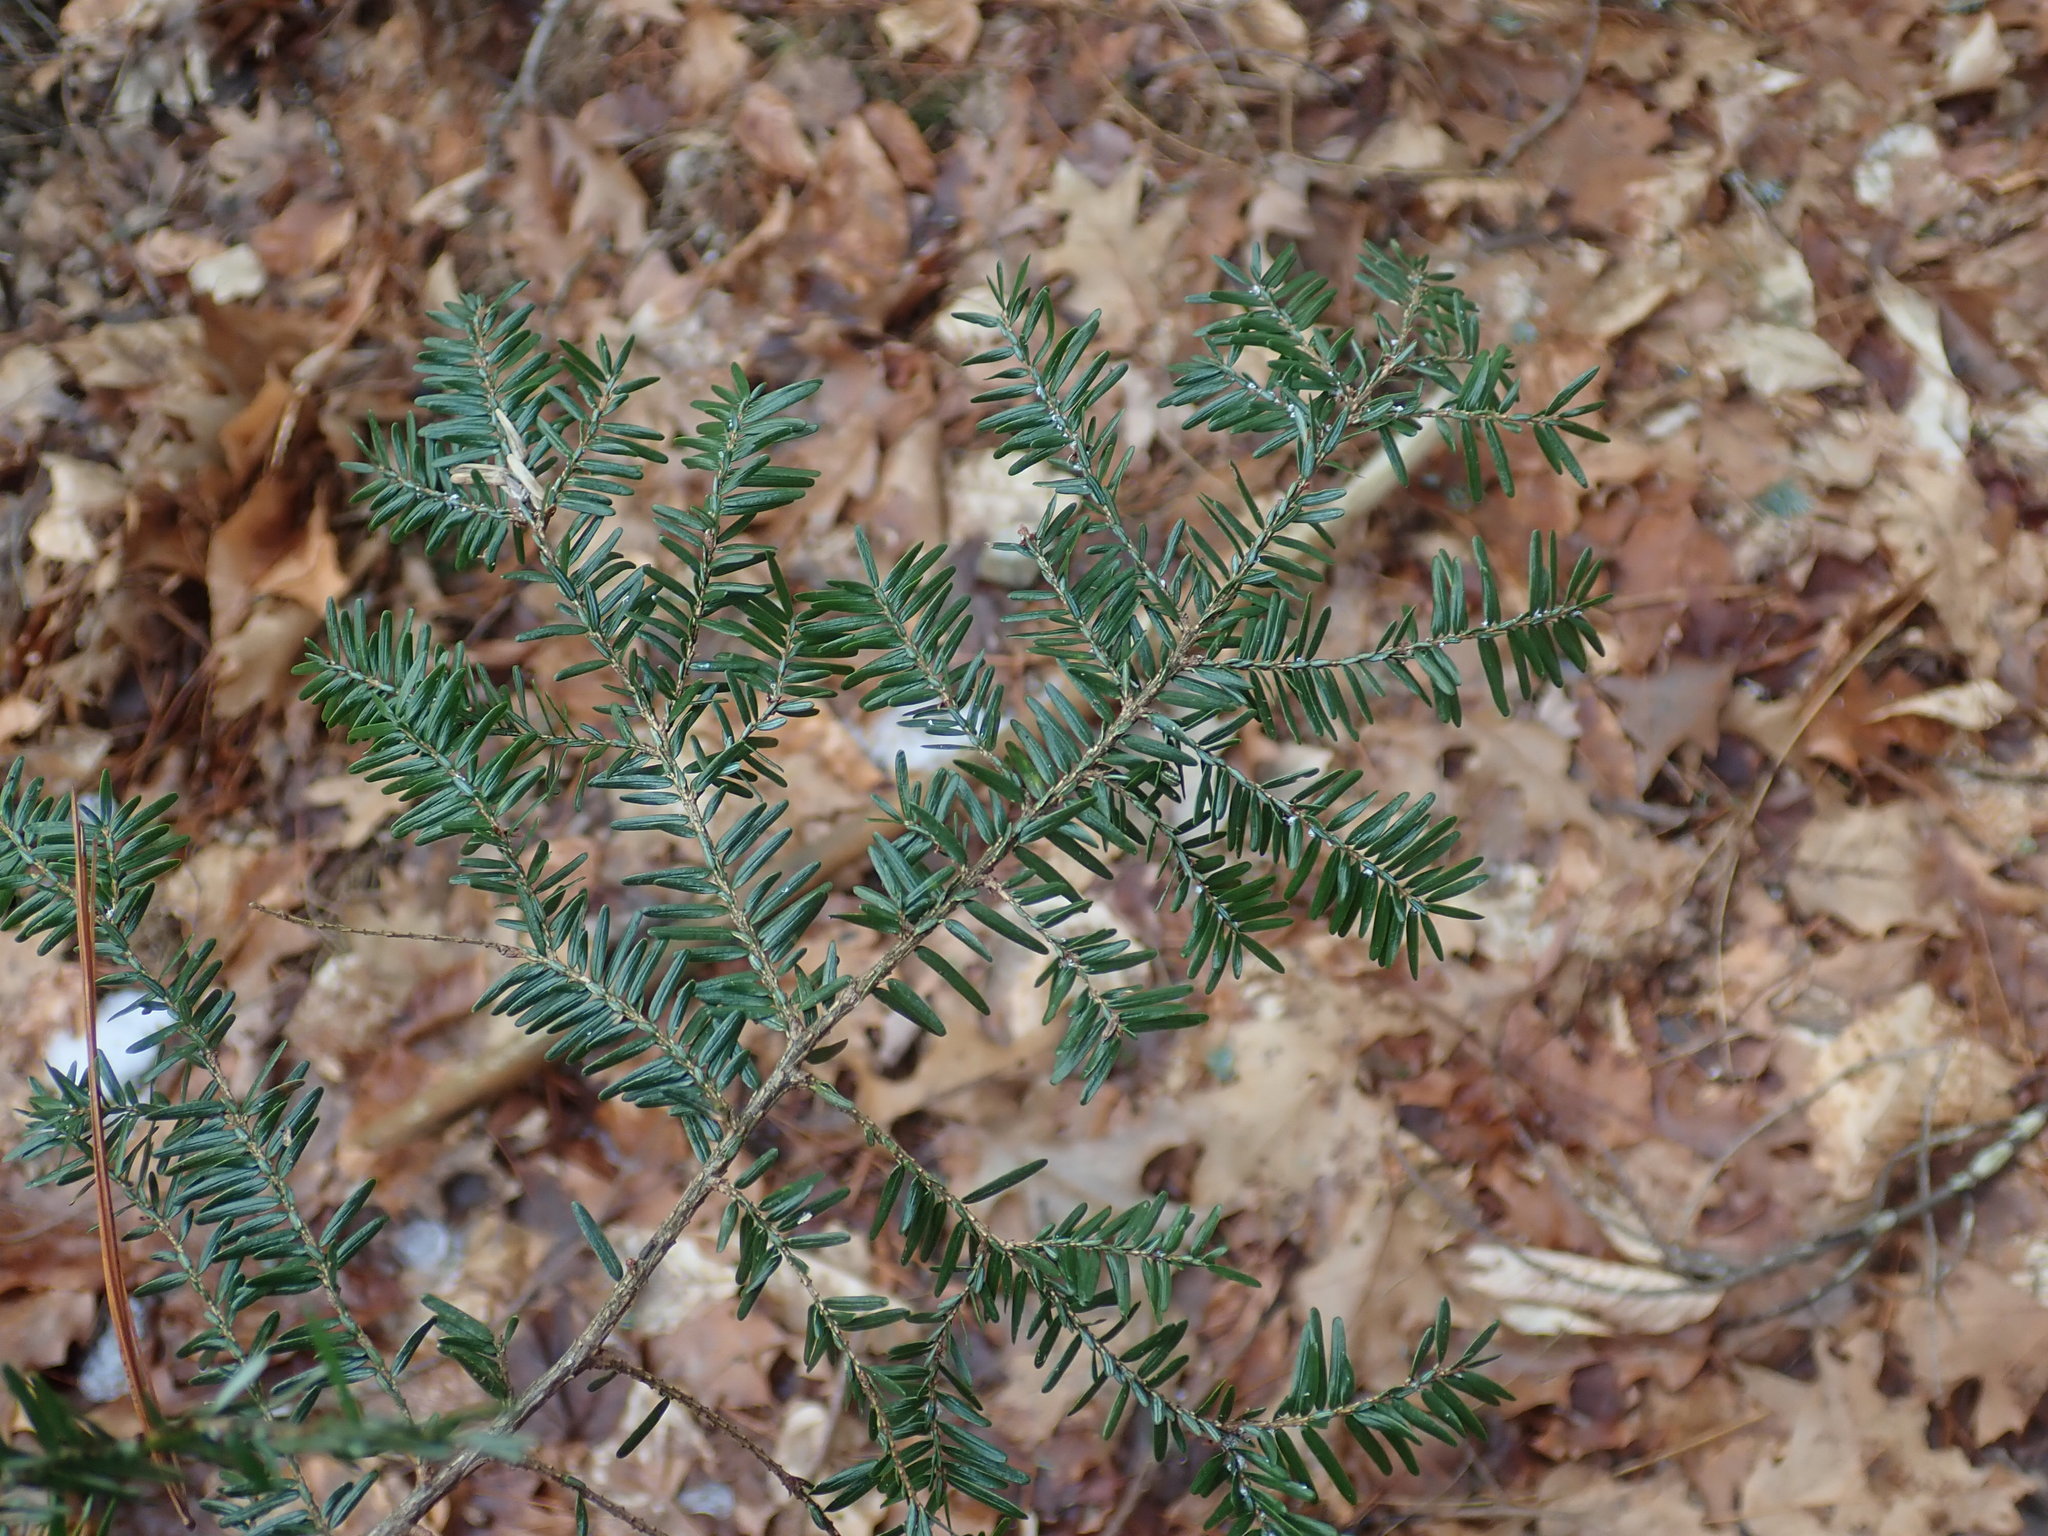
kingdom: Plantae
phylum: Tracheophyta
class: Pinopsida
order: Pinales
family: Pinaceae
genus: Tsuga
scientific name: Tsuga canadensis
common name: Eastern hemlock
